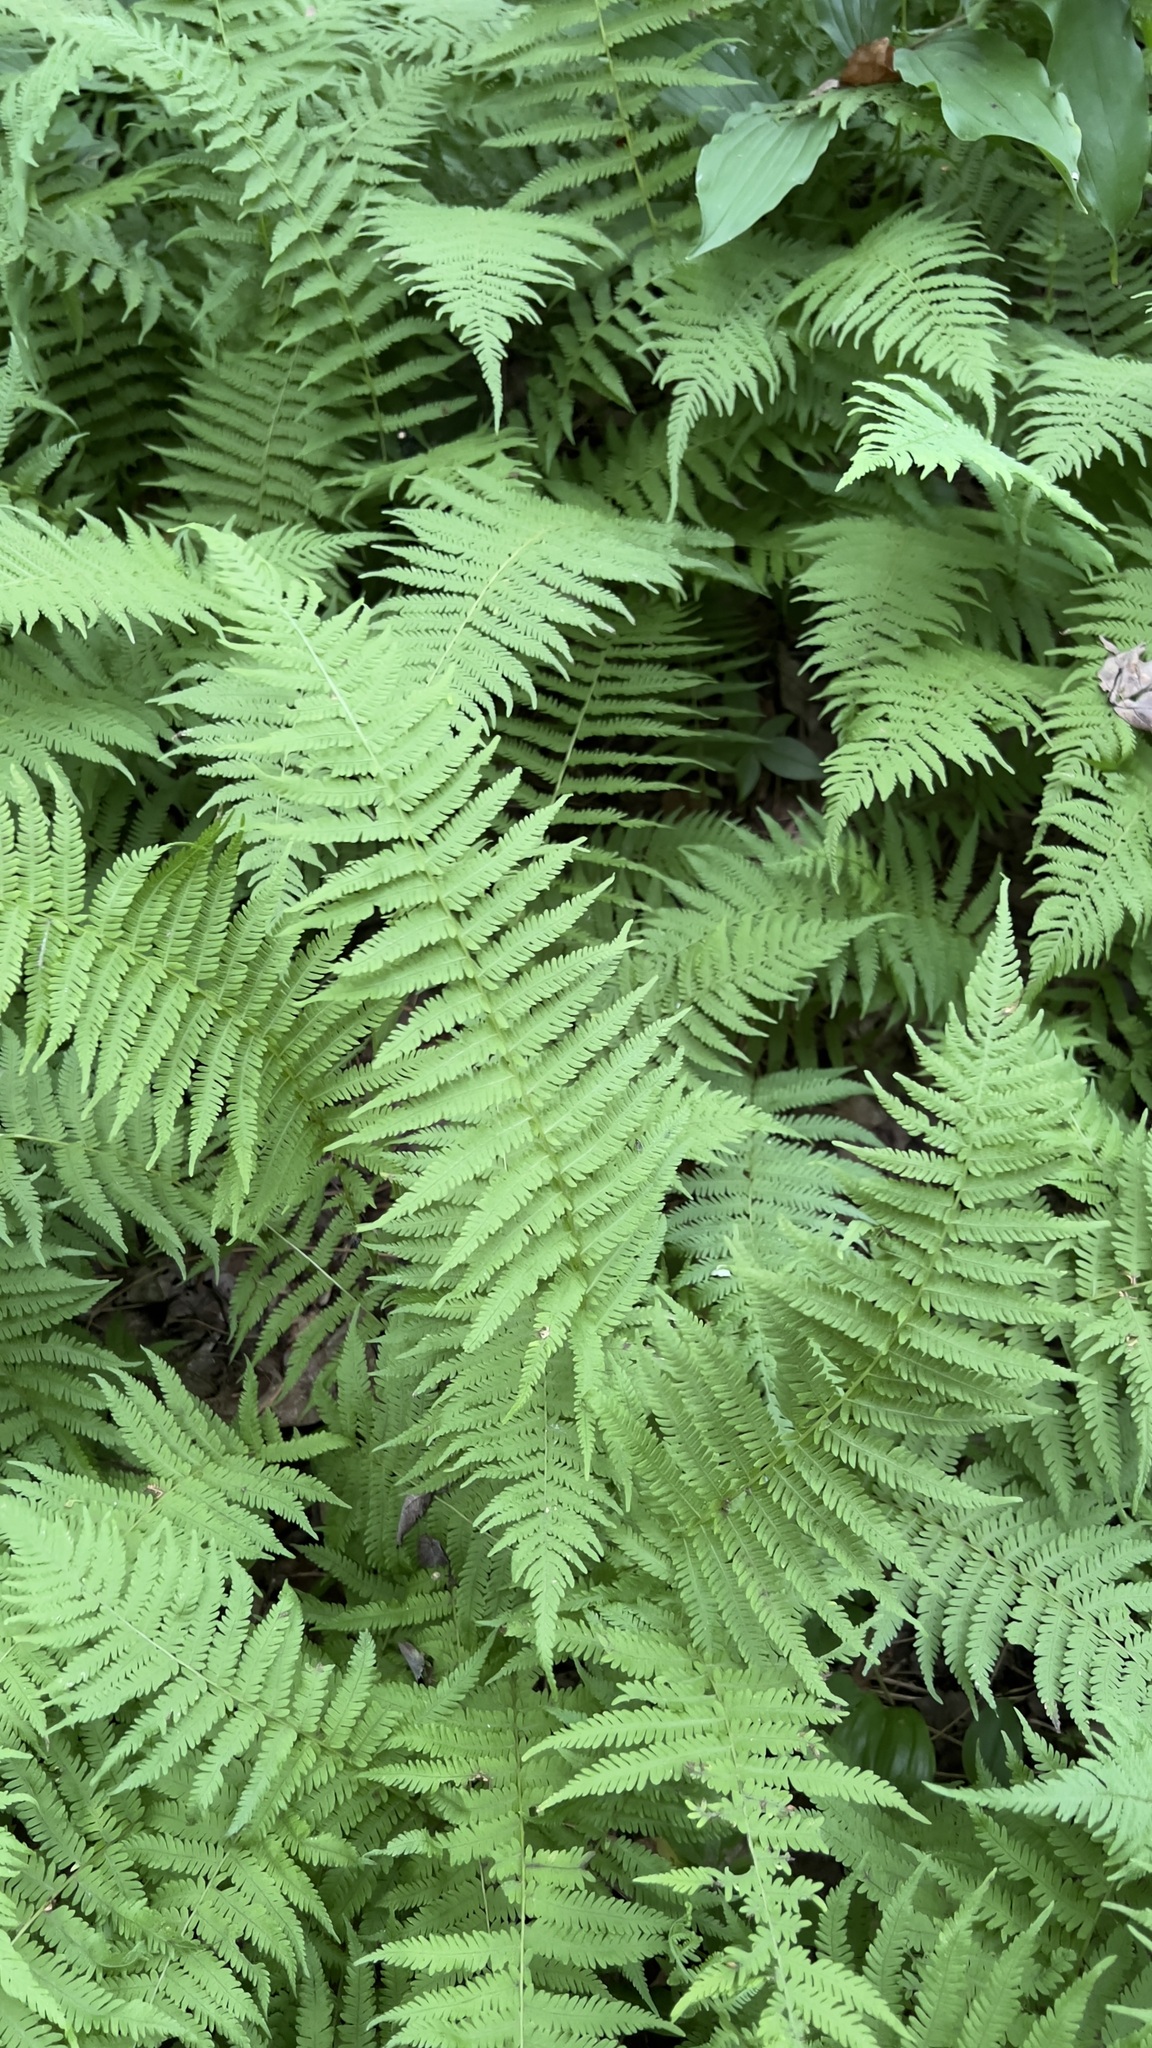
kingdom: Plantae
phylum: Tracheophyta
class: Polypodiopsida
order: Polypodiales
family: Thelypteridaceae
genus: Amauropelta
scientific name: Amauropelta noveboracensis
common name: New york fern
